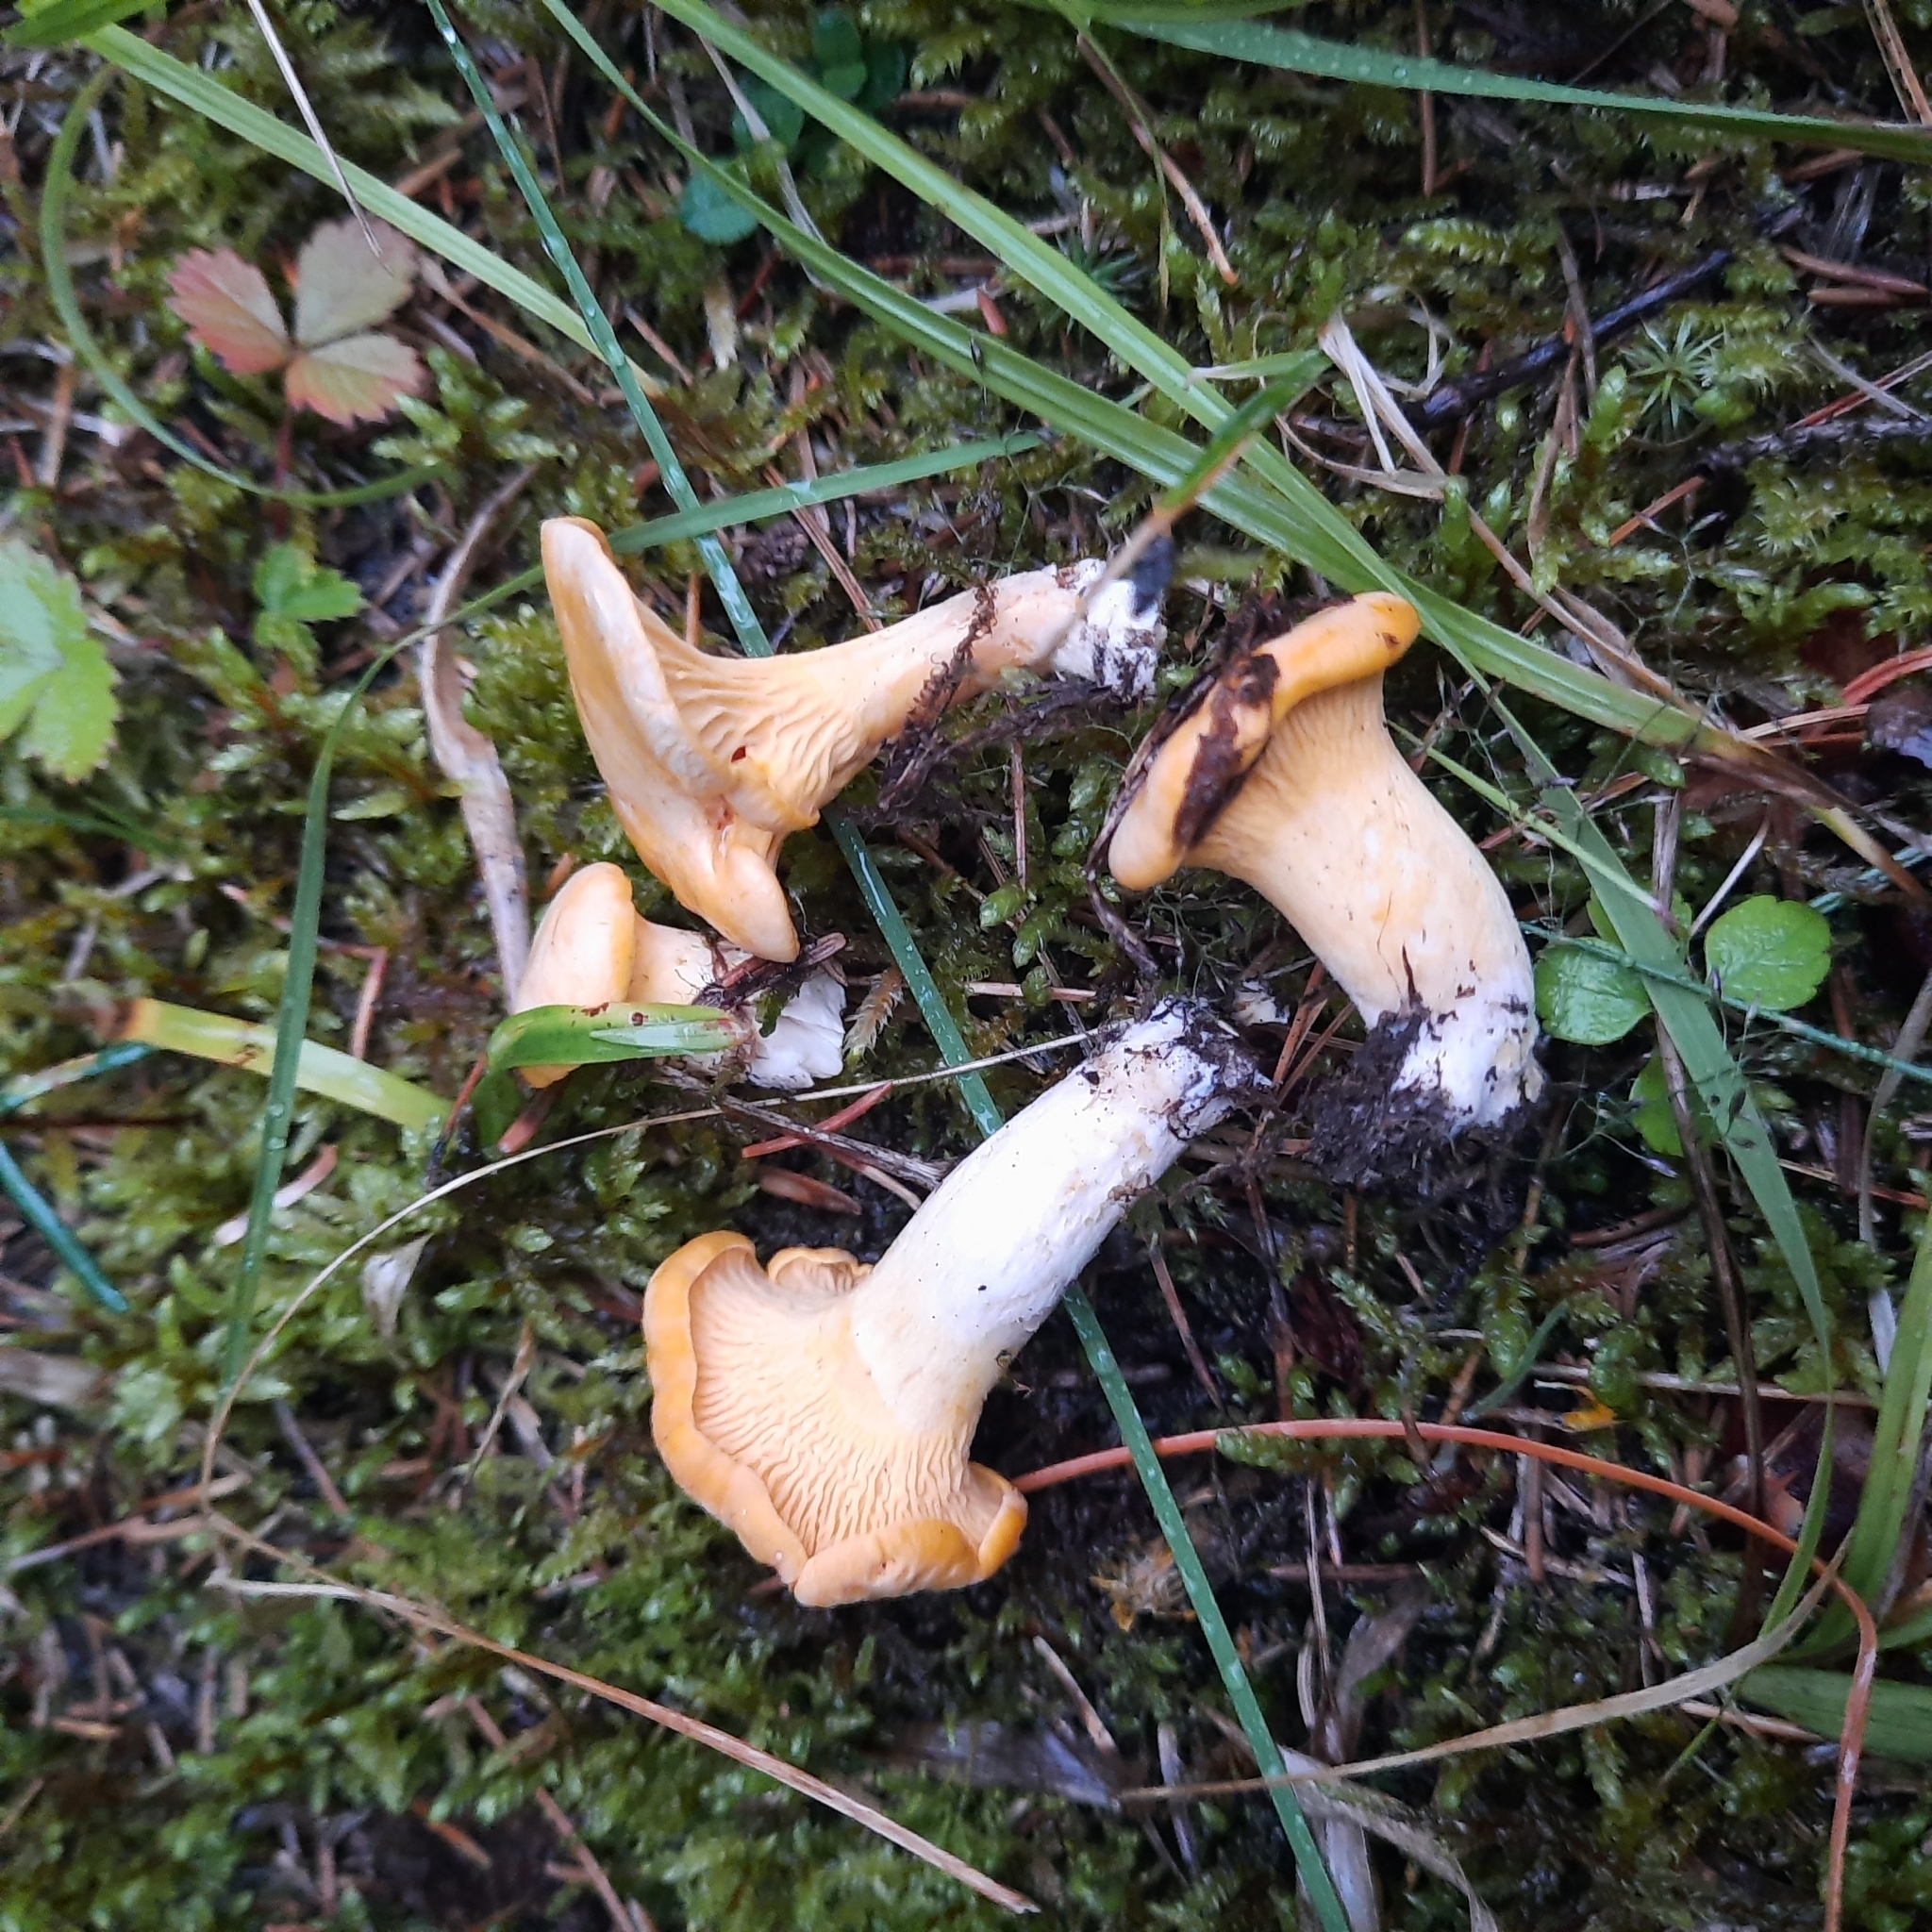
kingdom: Fungi
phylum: Basidiomycota
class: Agaricomycetes
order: Cantharellales
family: Hydnaceae
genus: Cantharellus
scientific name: Cantharellus cibarius
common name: Chanterelle
